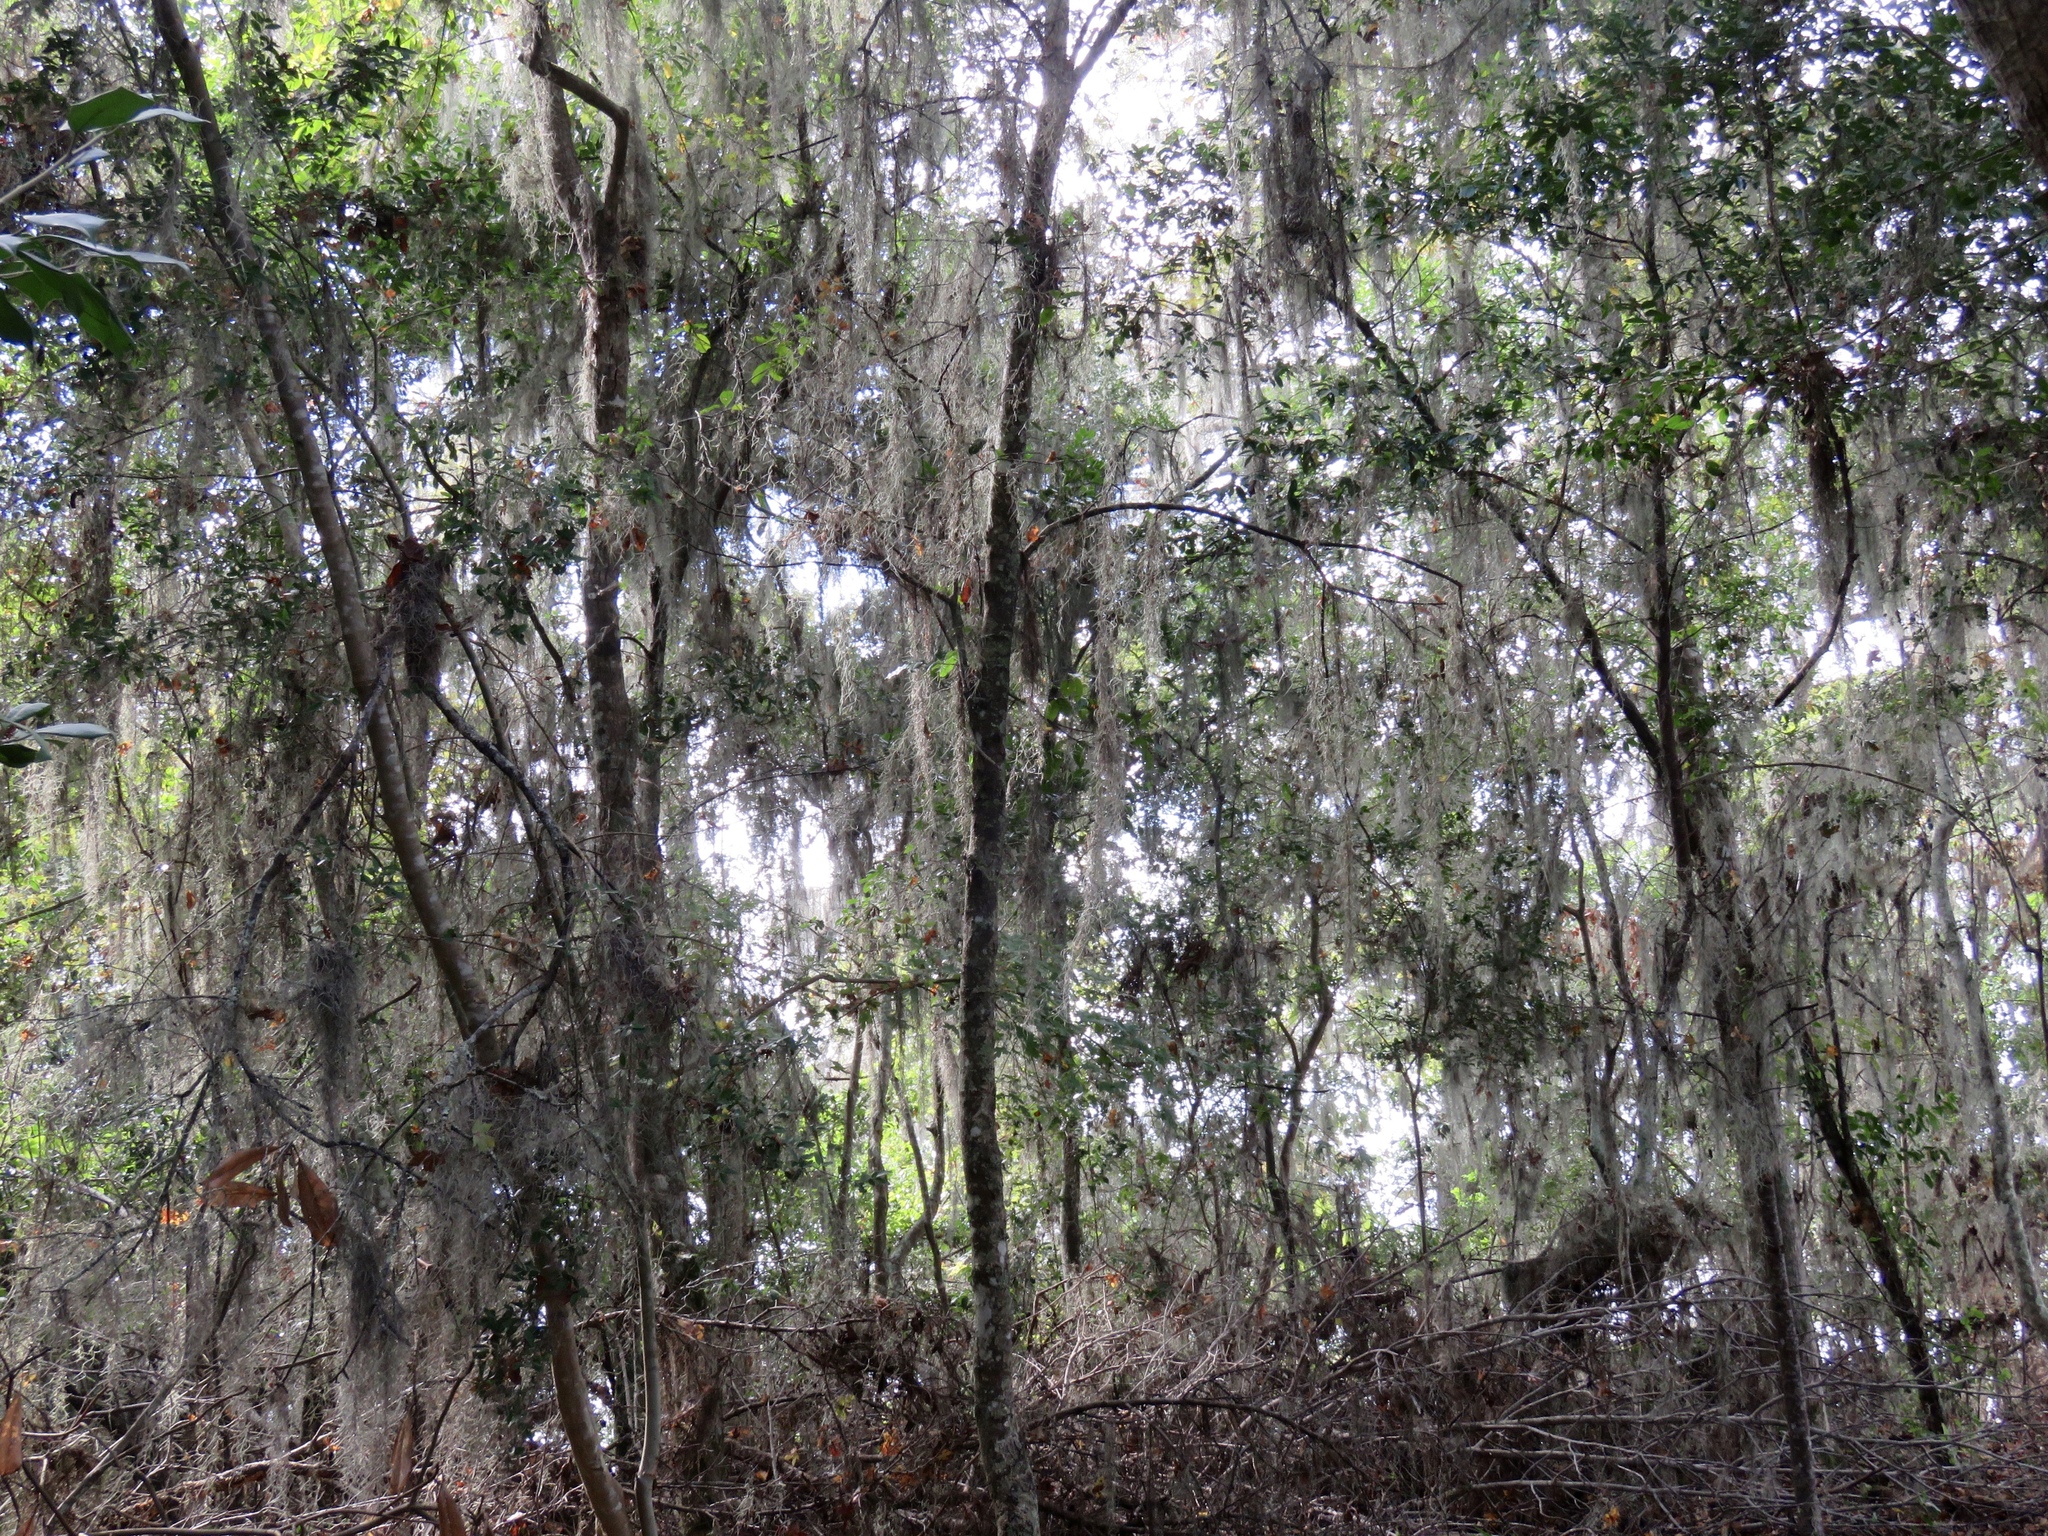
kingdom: Plantae
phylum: Tracheophyta
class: Liliopsida
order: Poales
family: Bromeliaceae
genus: Tillandsia
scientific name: Tillandsia usneoides
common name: Spanish moss
